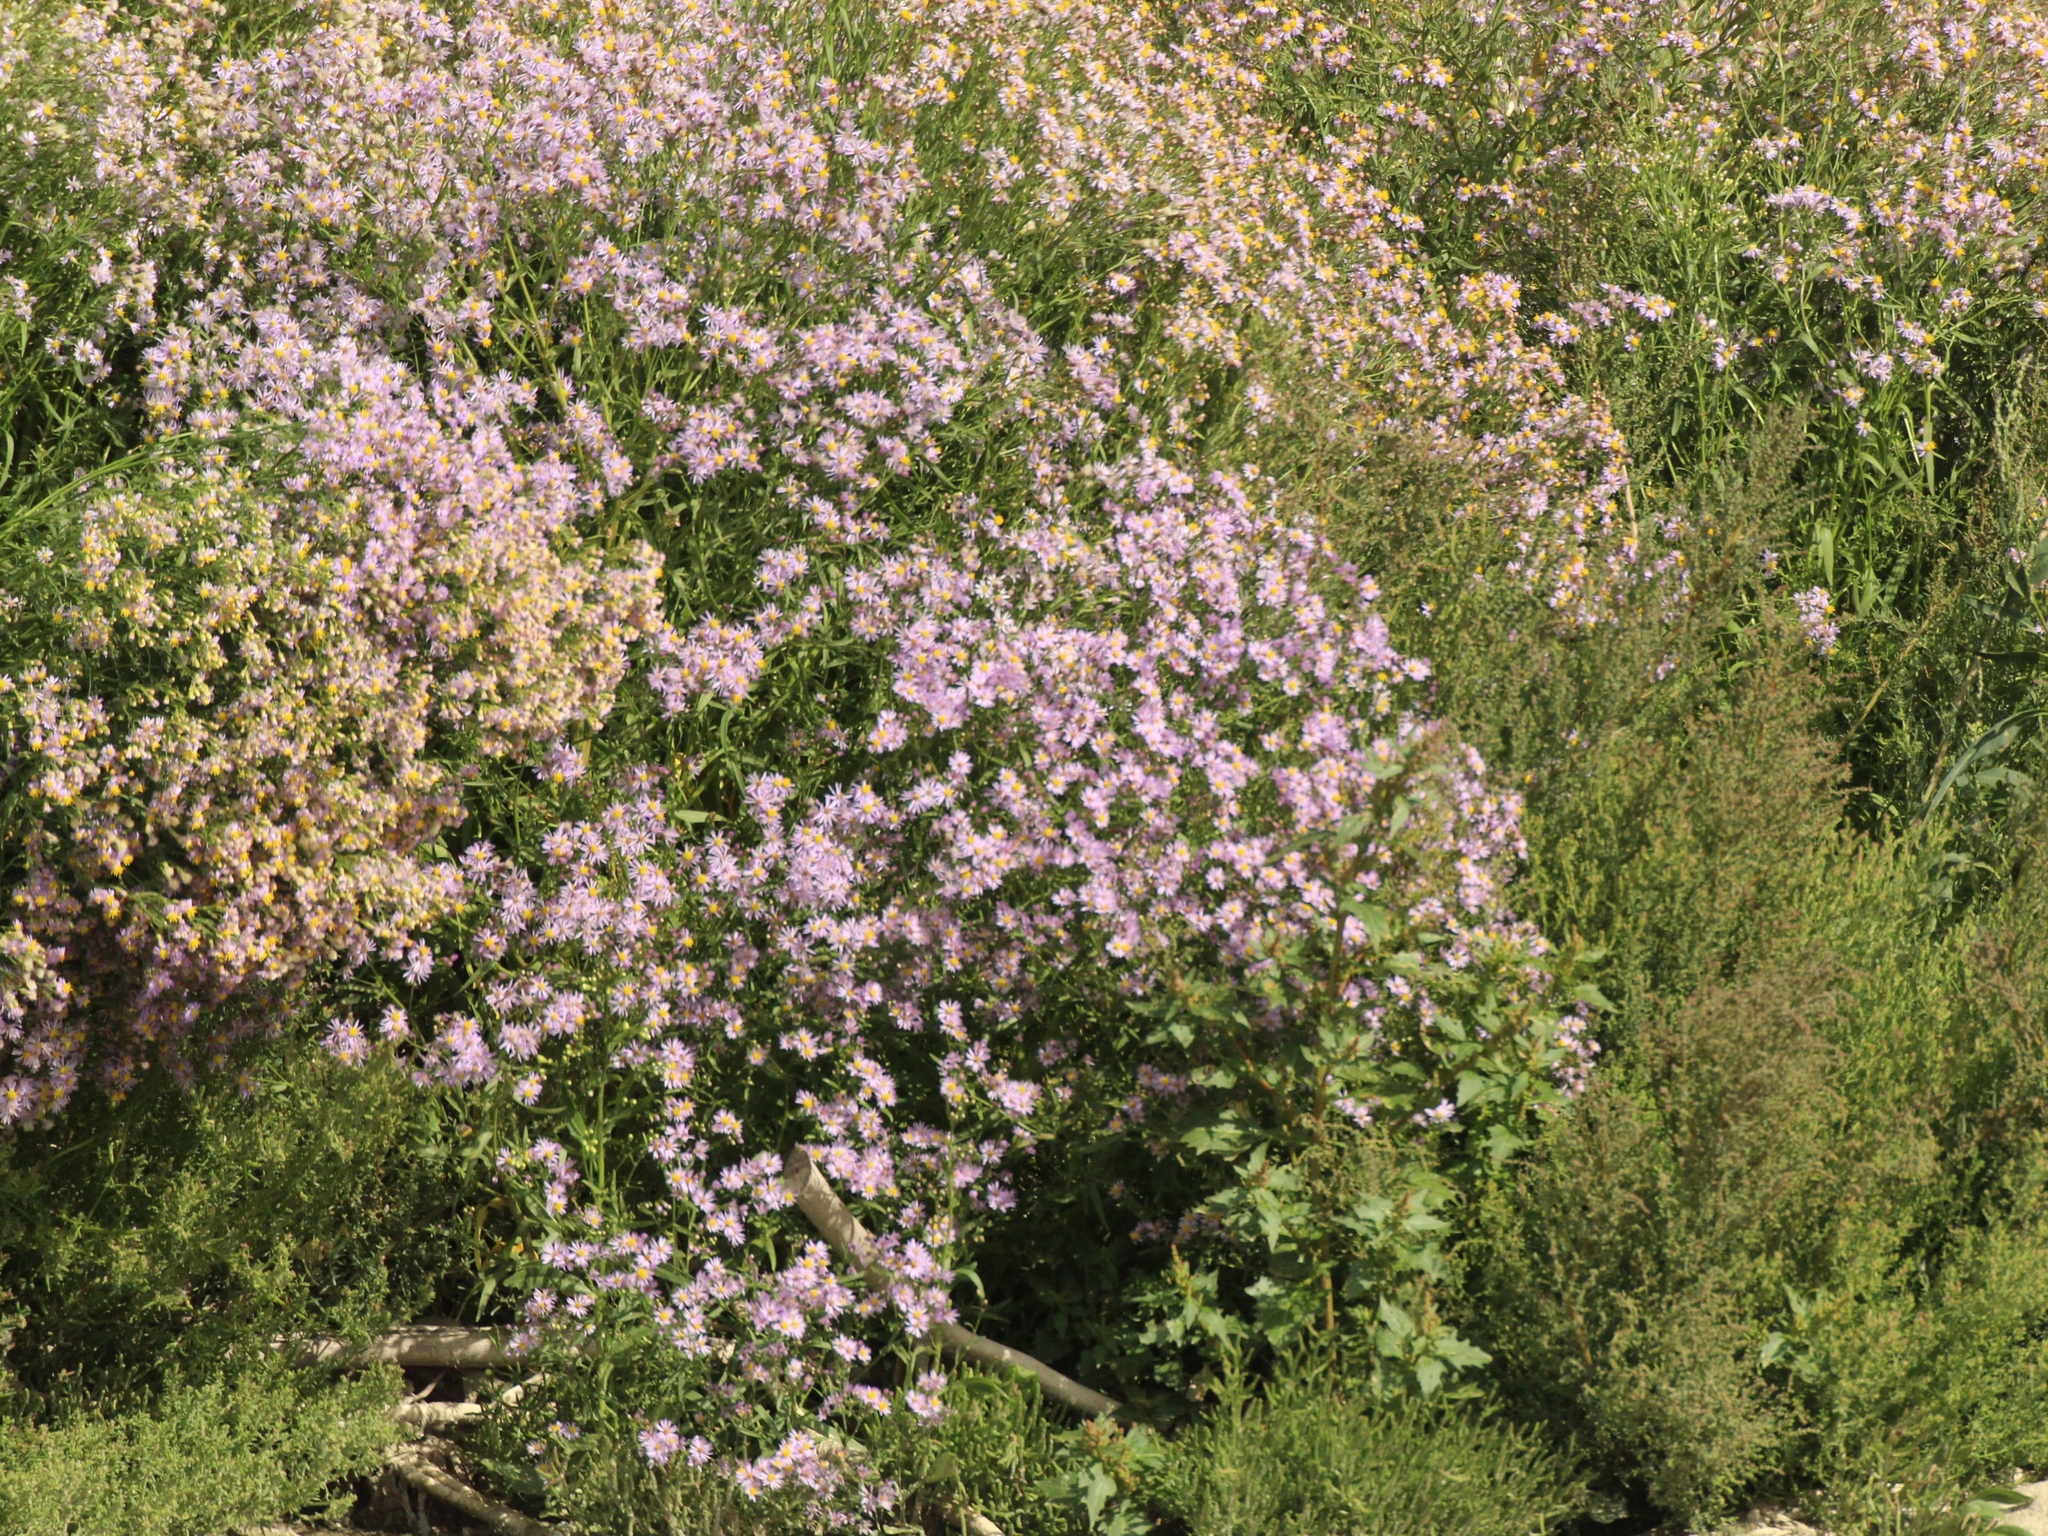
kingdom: Plantae
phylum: Tracheophyta
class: Magnoliopsida
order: Asterales
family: Asteraceae
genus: Tripolium
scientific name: Tripolium pannonicum
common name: Sea aster
